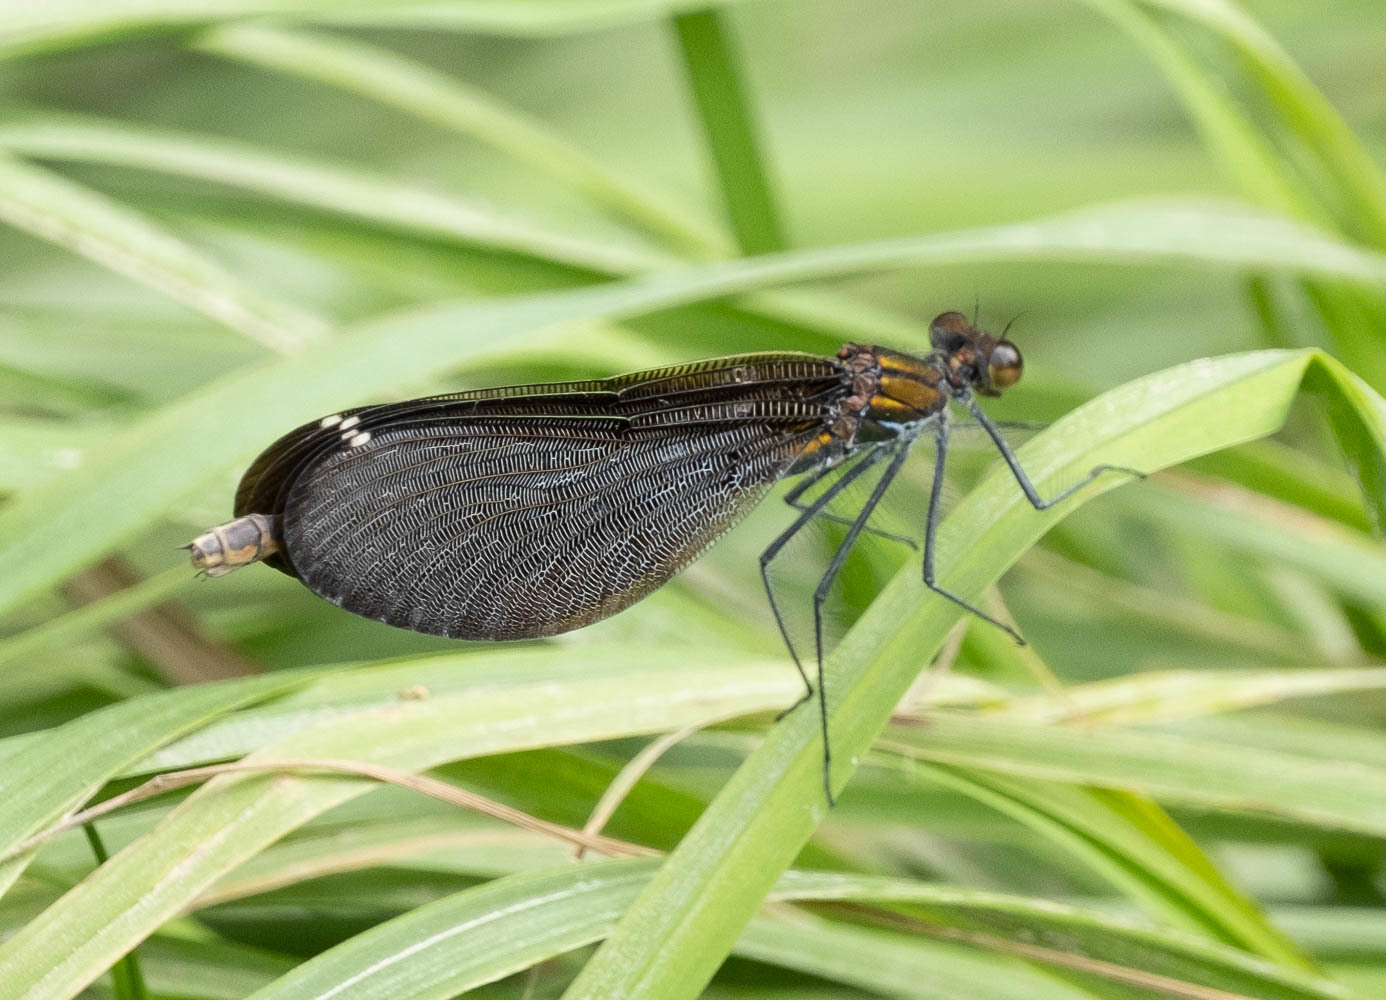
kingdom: Animalia
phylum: Arthropoda
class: Insecta
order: Odonata
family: Calopterygidae
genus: Calopteryx
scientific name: Calopteryx virgo
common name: Beautiful demoiselle
